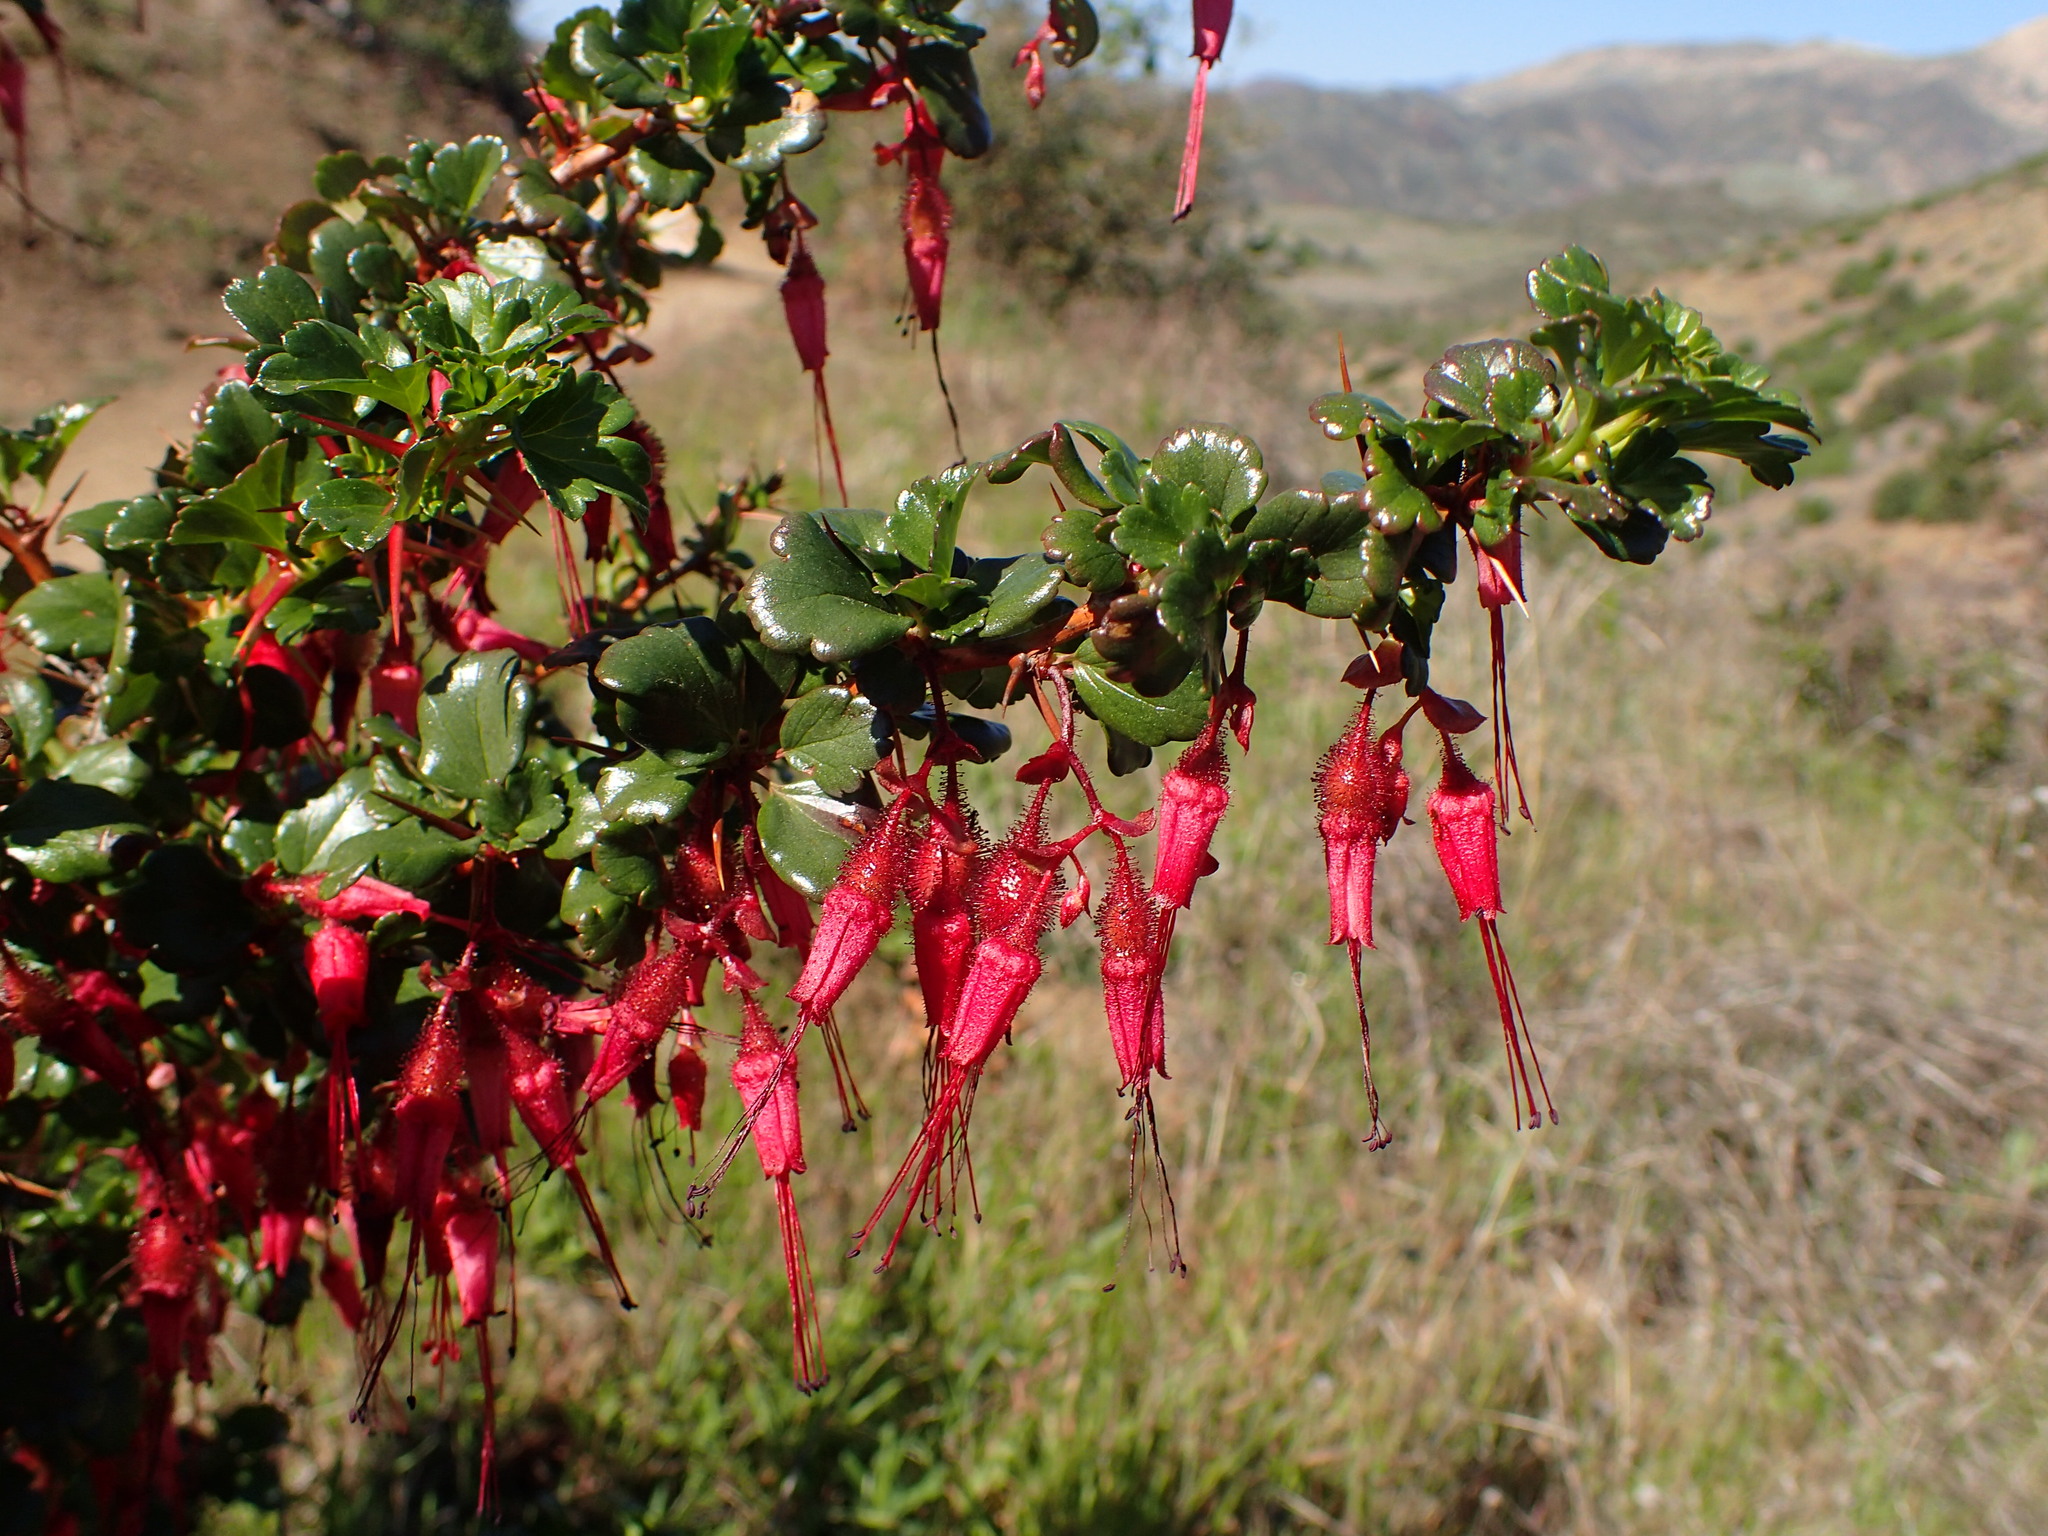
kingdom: Plantae
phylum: Tracheophyta
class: Magnoliopsida
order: Saxifragales
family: Grossulariaceae
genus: Ribes
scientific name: Ribes speciosum
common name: Fuchsia-flower gooseberry
